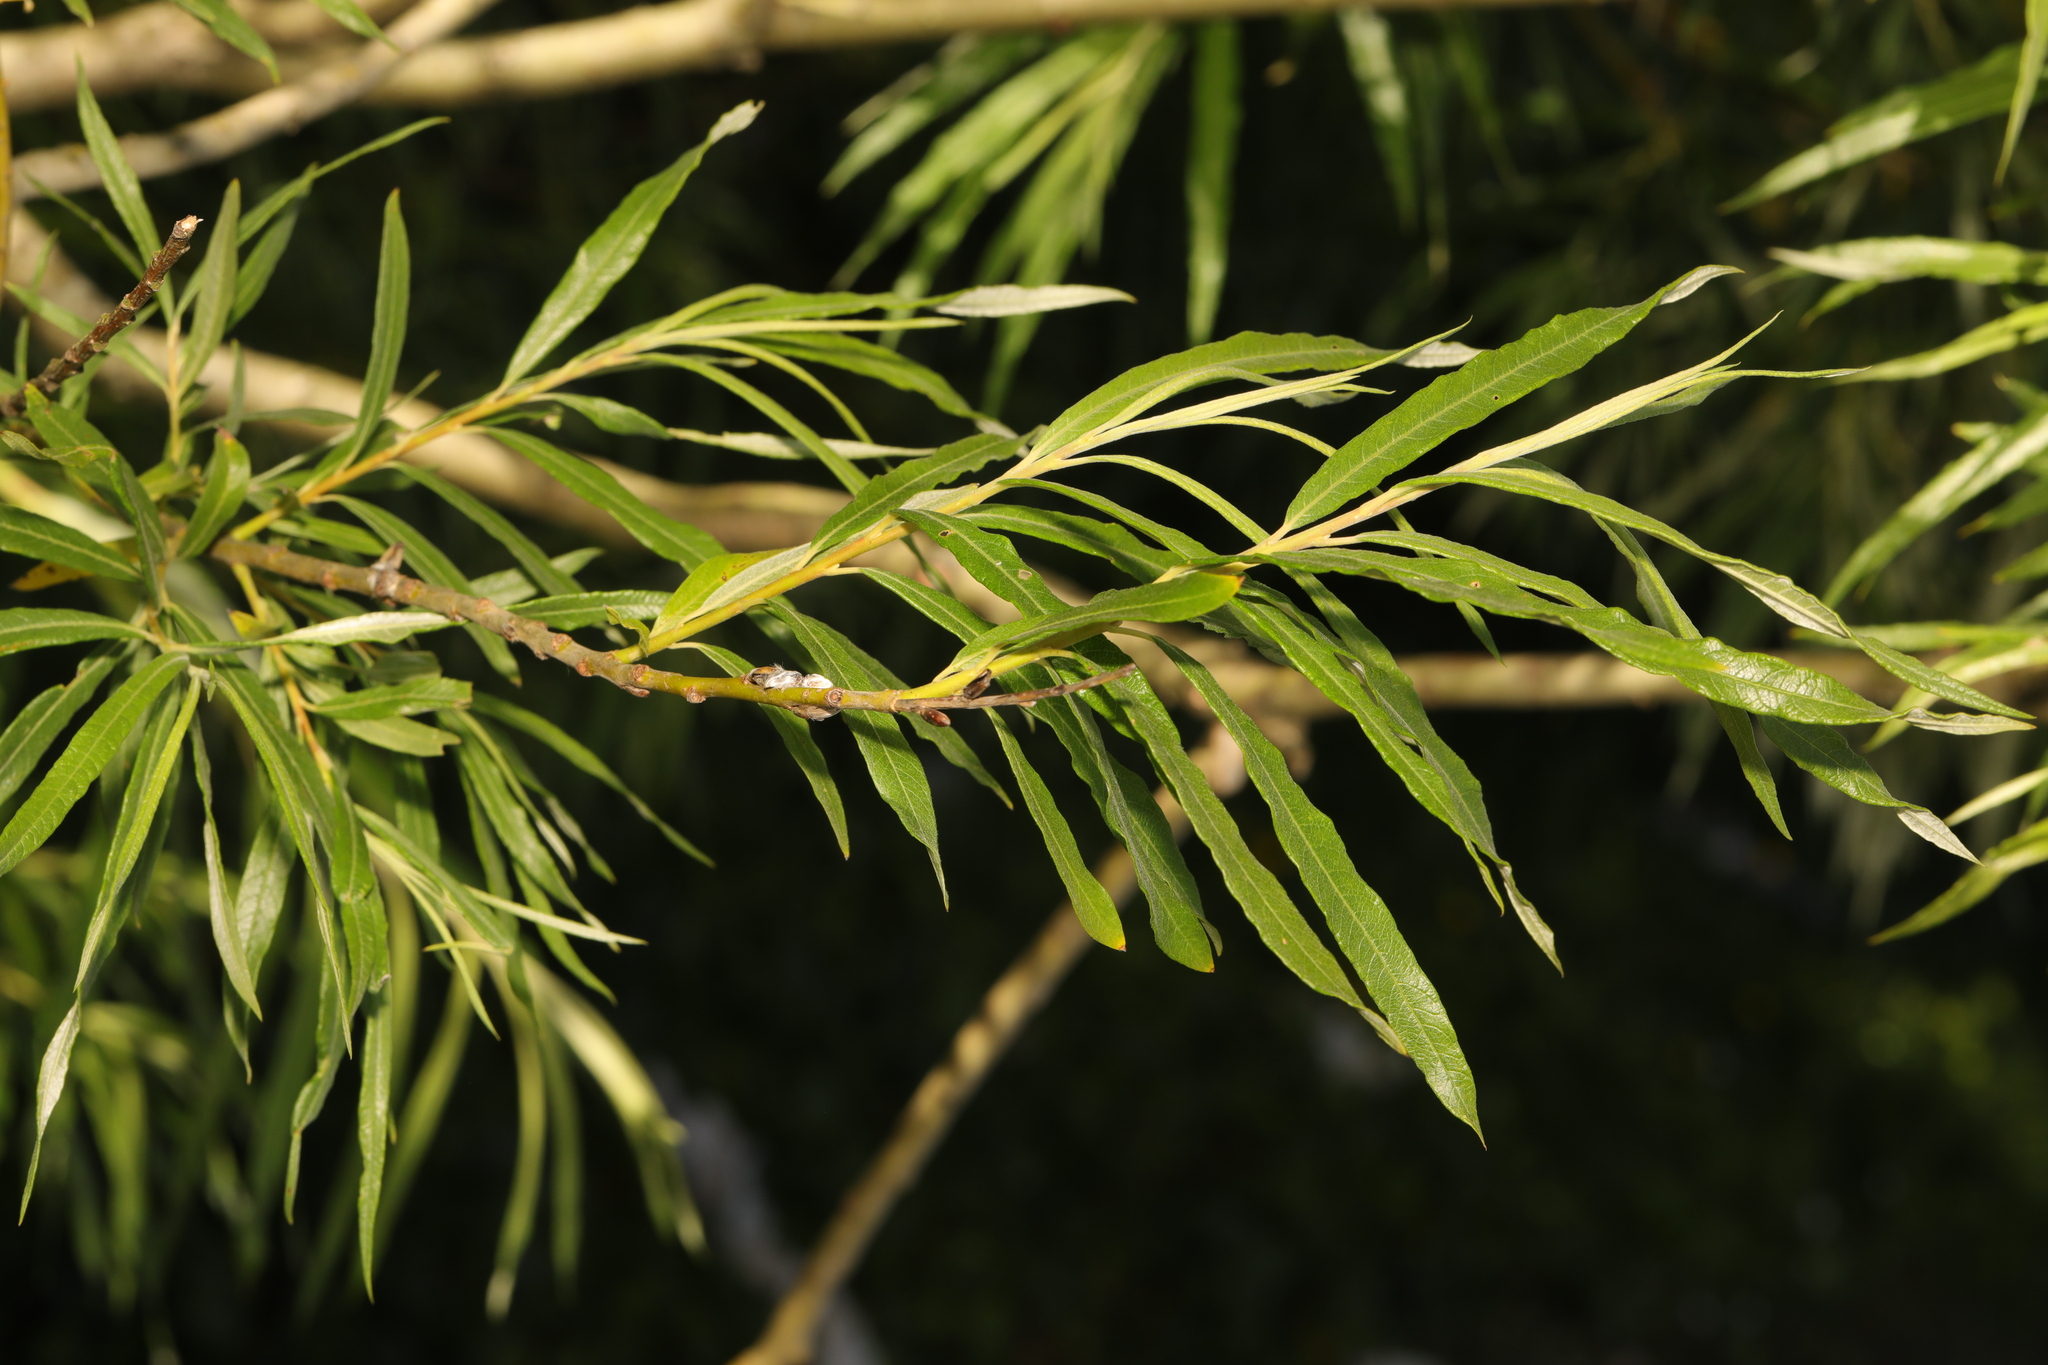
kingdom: Plantae
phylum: Tracheophyta
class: Magnoliopsida
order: Malpighiales
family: Salicaceae
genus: Salix
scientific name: Salix viminalis
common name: Osier
